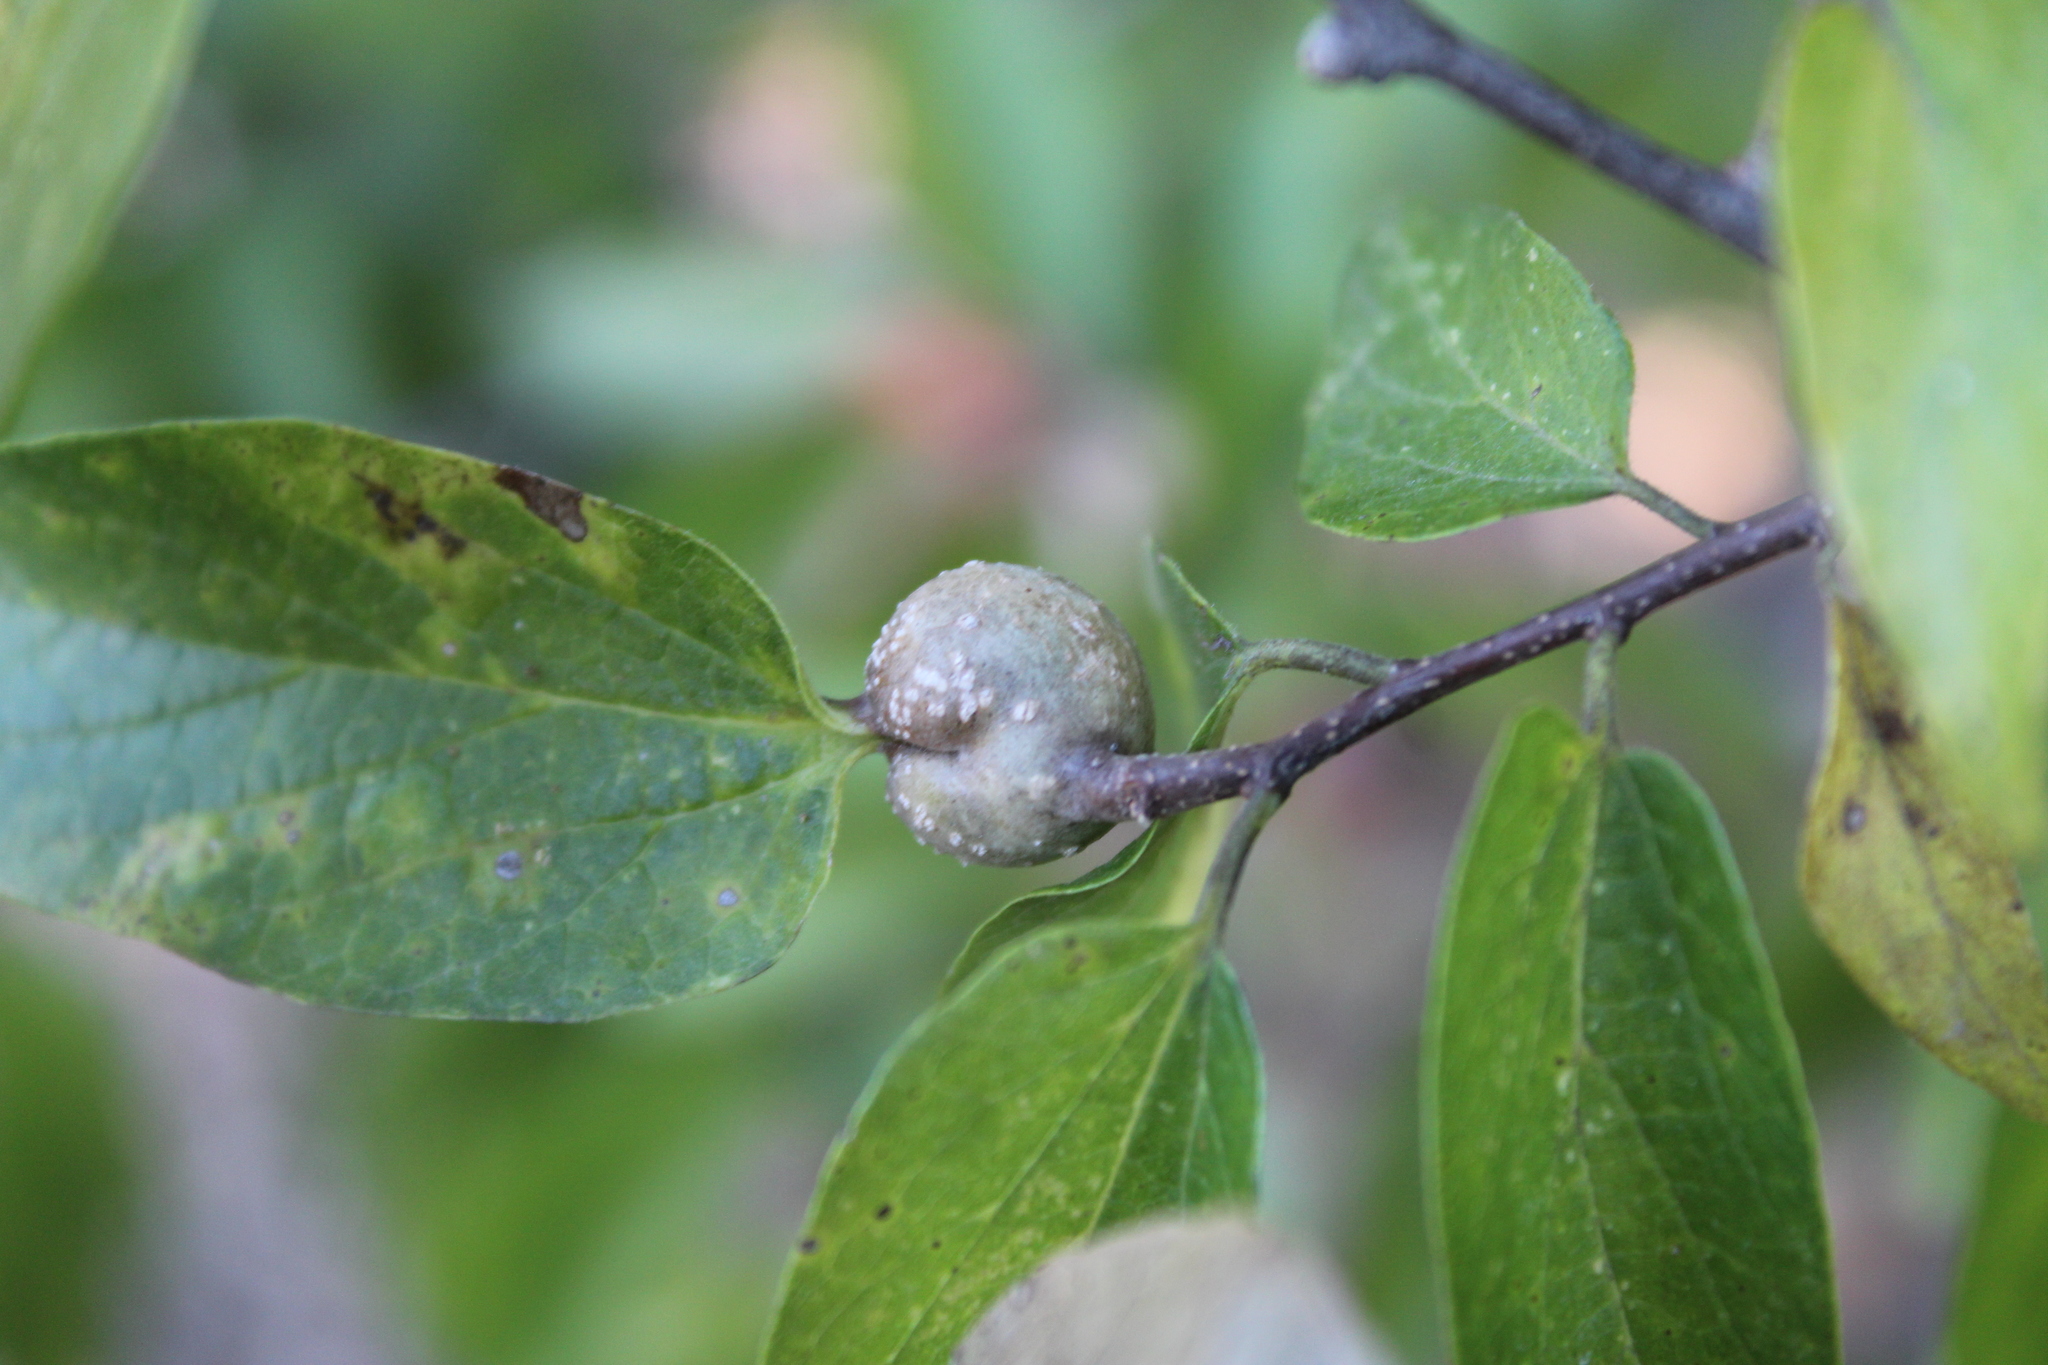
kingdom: Animalia
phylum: Arthropoda
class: Insecta
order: Hemiptera
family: Aphalaridae
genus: Pachypsylla
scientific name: Pachypsylla venusta
